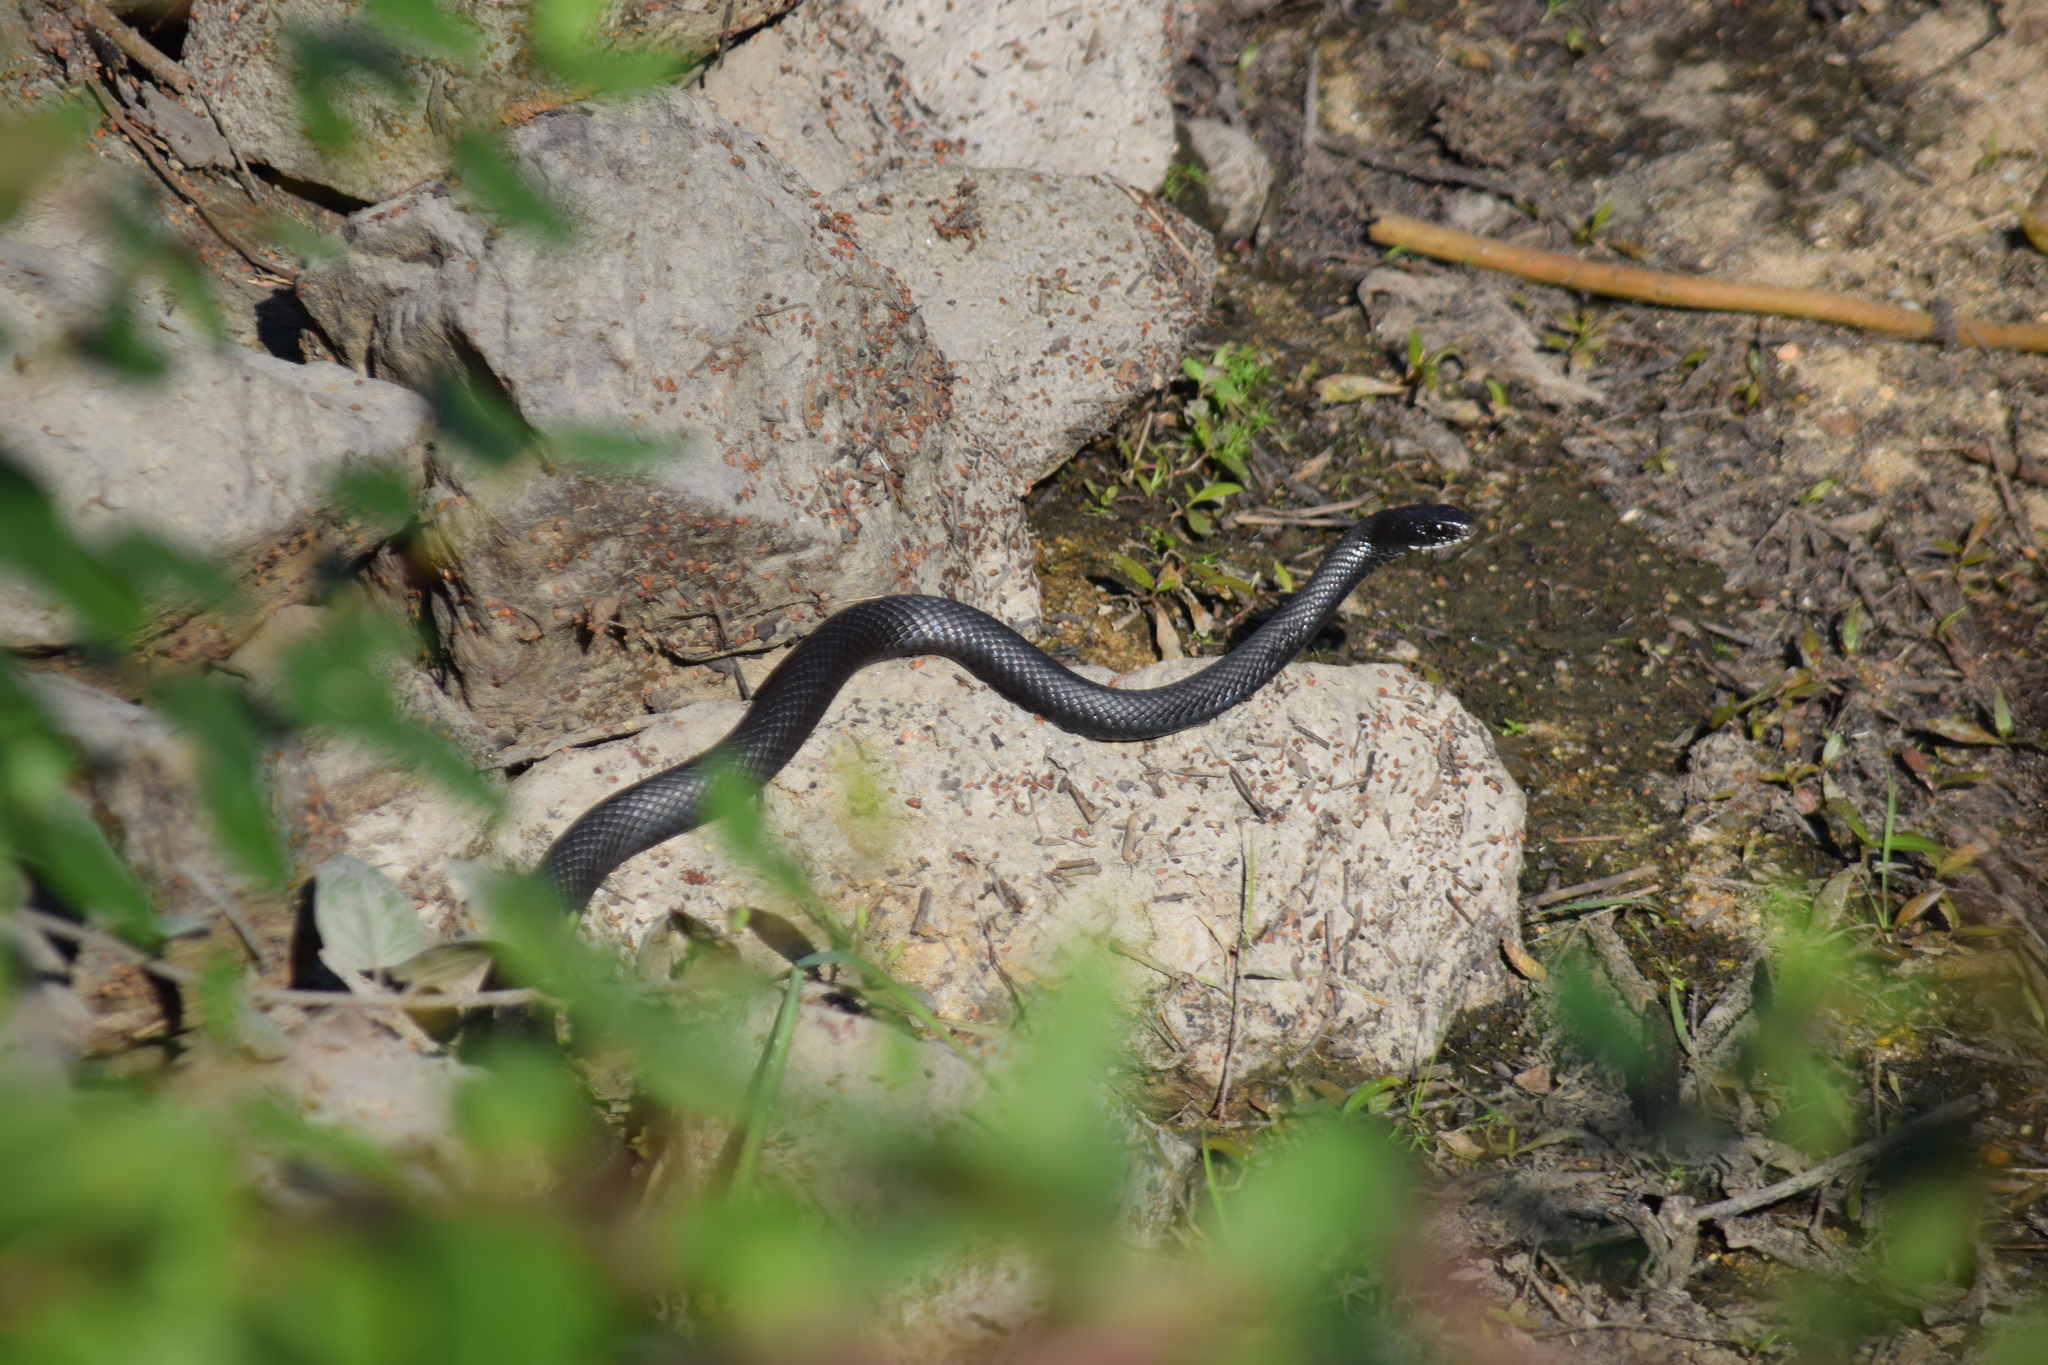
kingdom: Animalia
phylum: Chordata
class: Squamata
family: Colubridae
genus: Coluber
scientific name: Coluber constrictor
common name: Eastern racer
